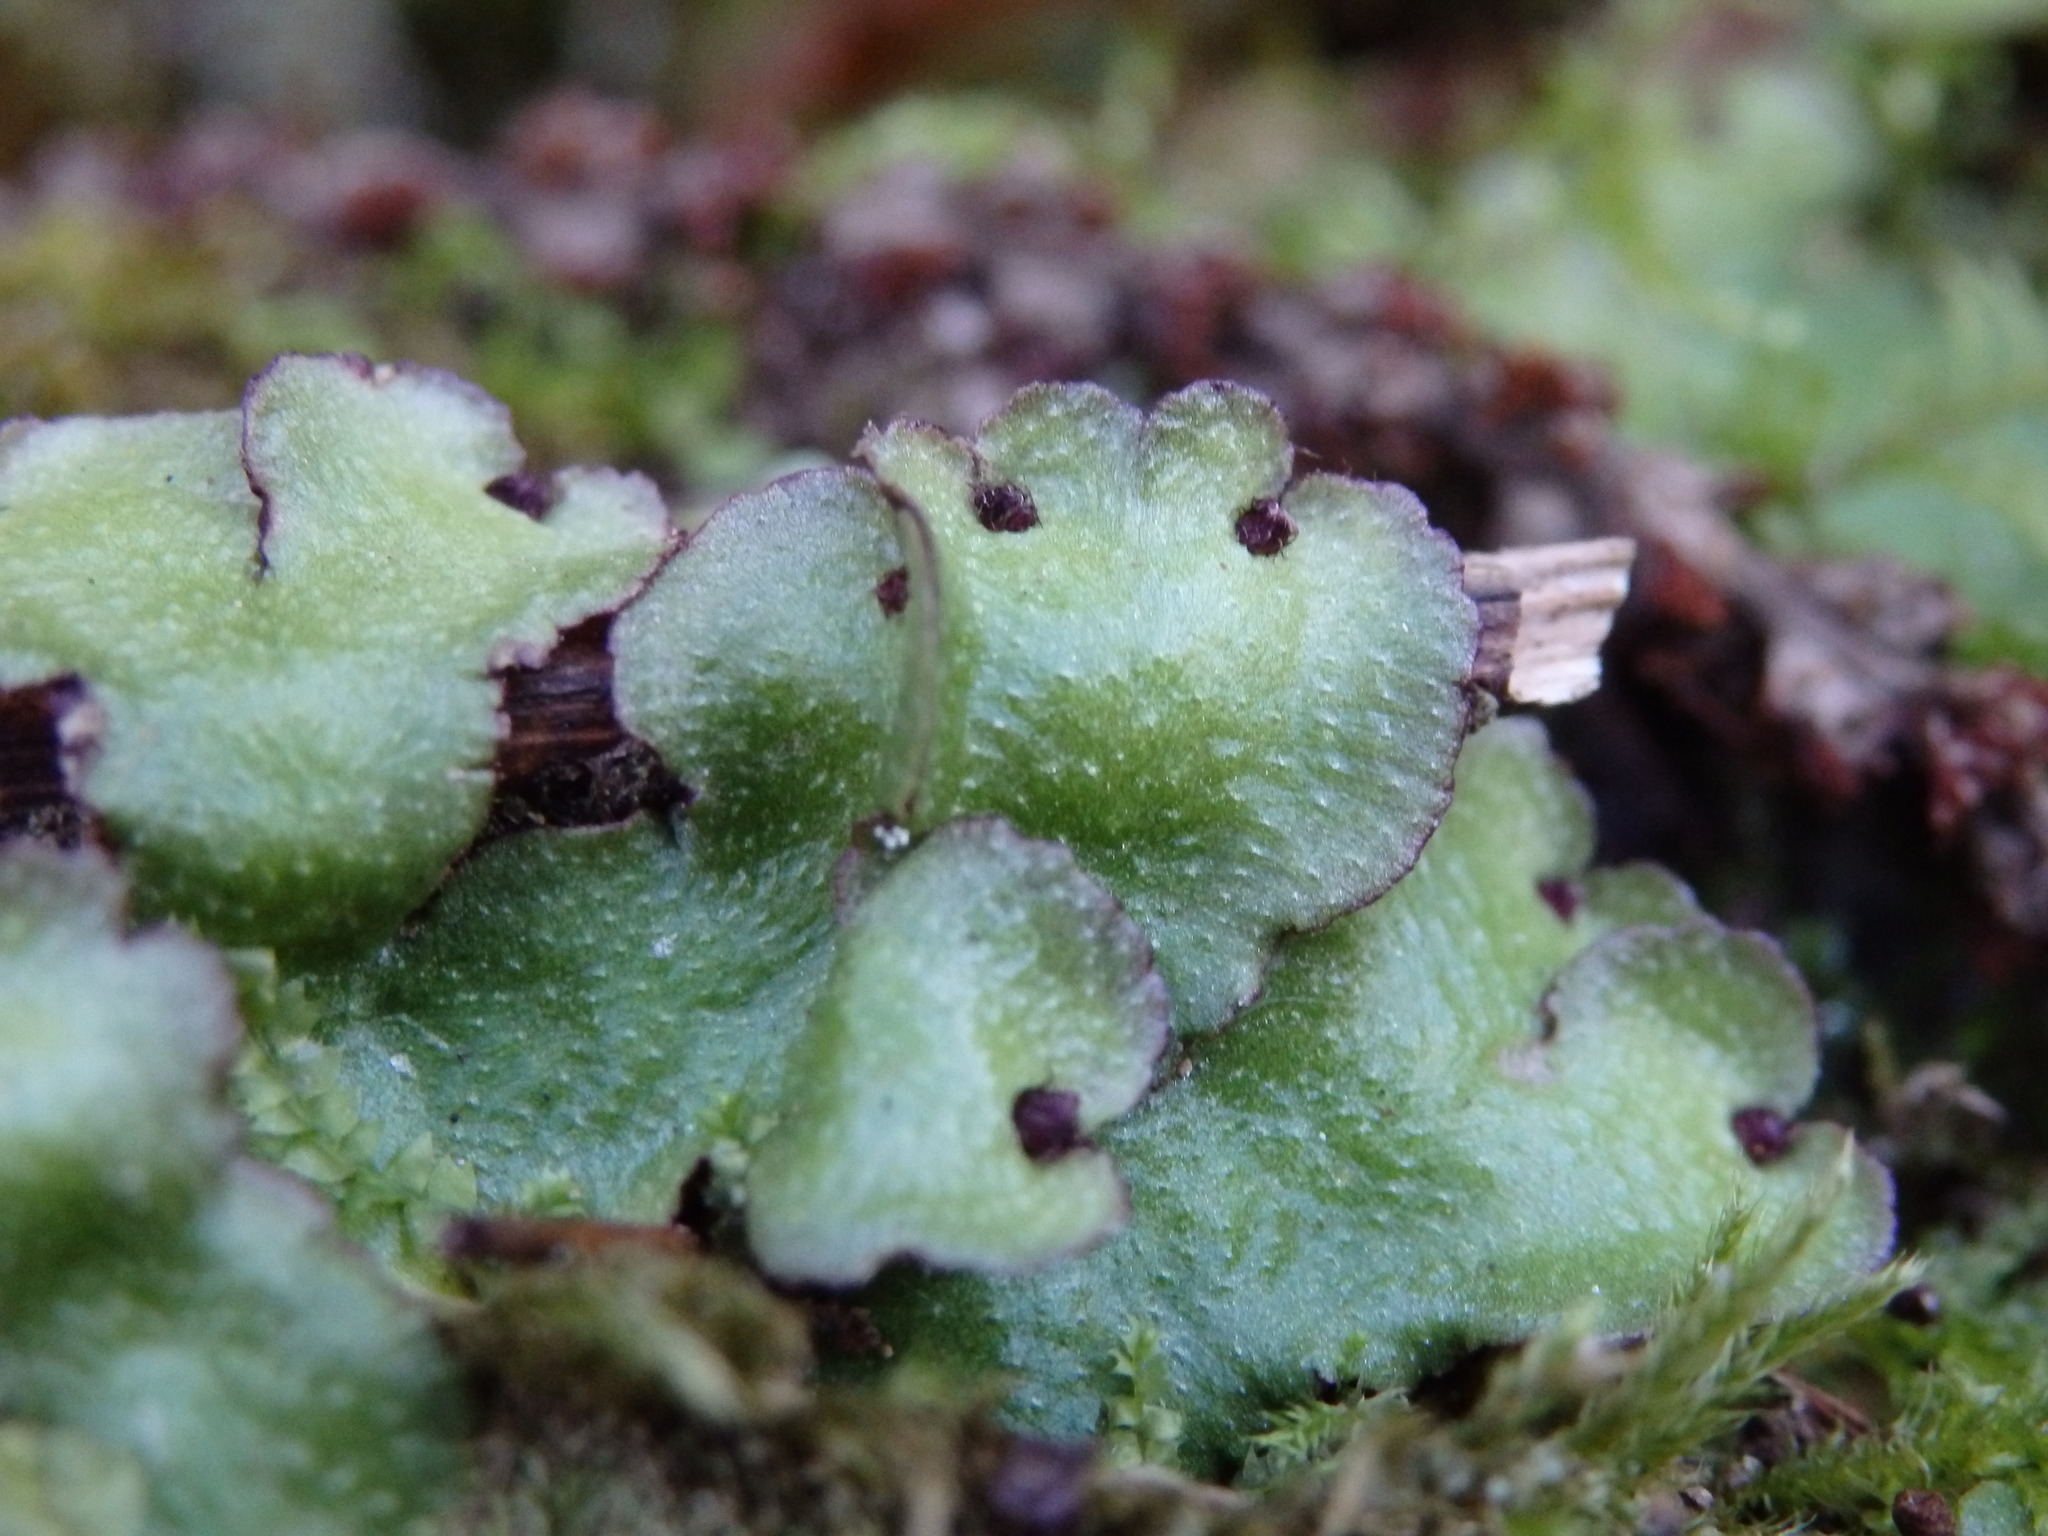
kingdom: Plantae
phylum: Marchantiophyta
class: Marchantiopsida
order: Marchantiales
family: Aytoniaceae
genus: Reboulia
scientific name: Reboulia hemisphaerica
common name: Purple-margined liverwort
